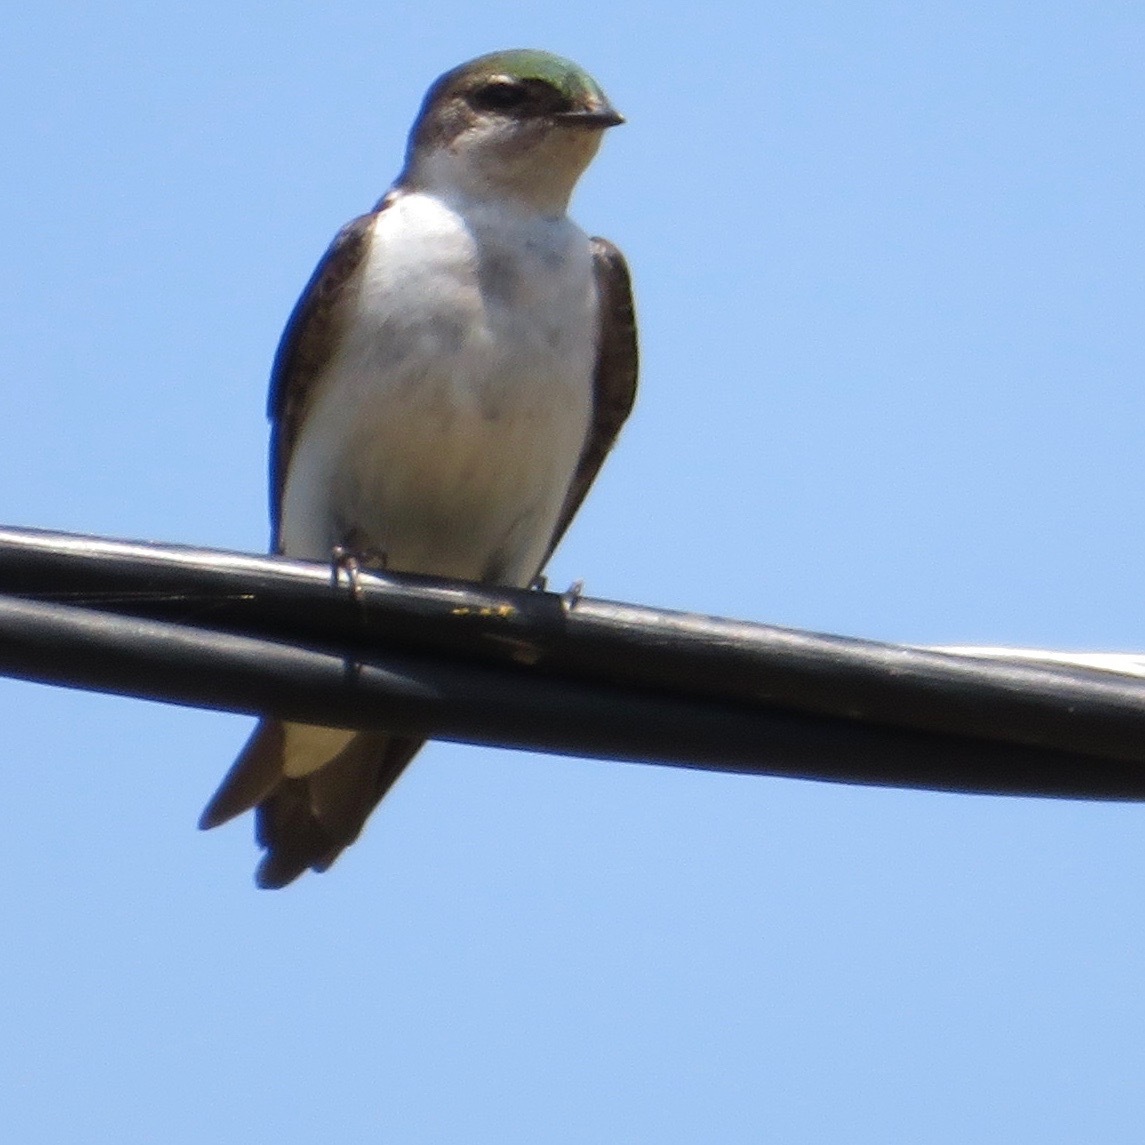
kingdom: Animalia
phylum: Chordata
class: Aves
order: Passeriformes
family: Hirundinidae
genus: Tachycineta
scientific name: Tachycineta thalassina
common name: Violet-green swallow
